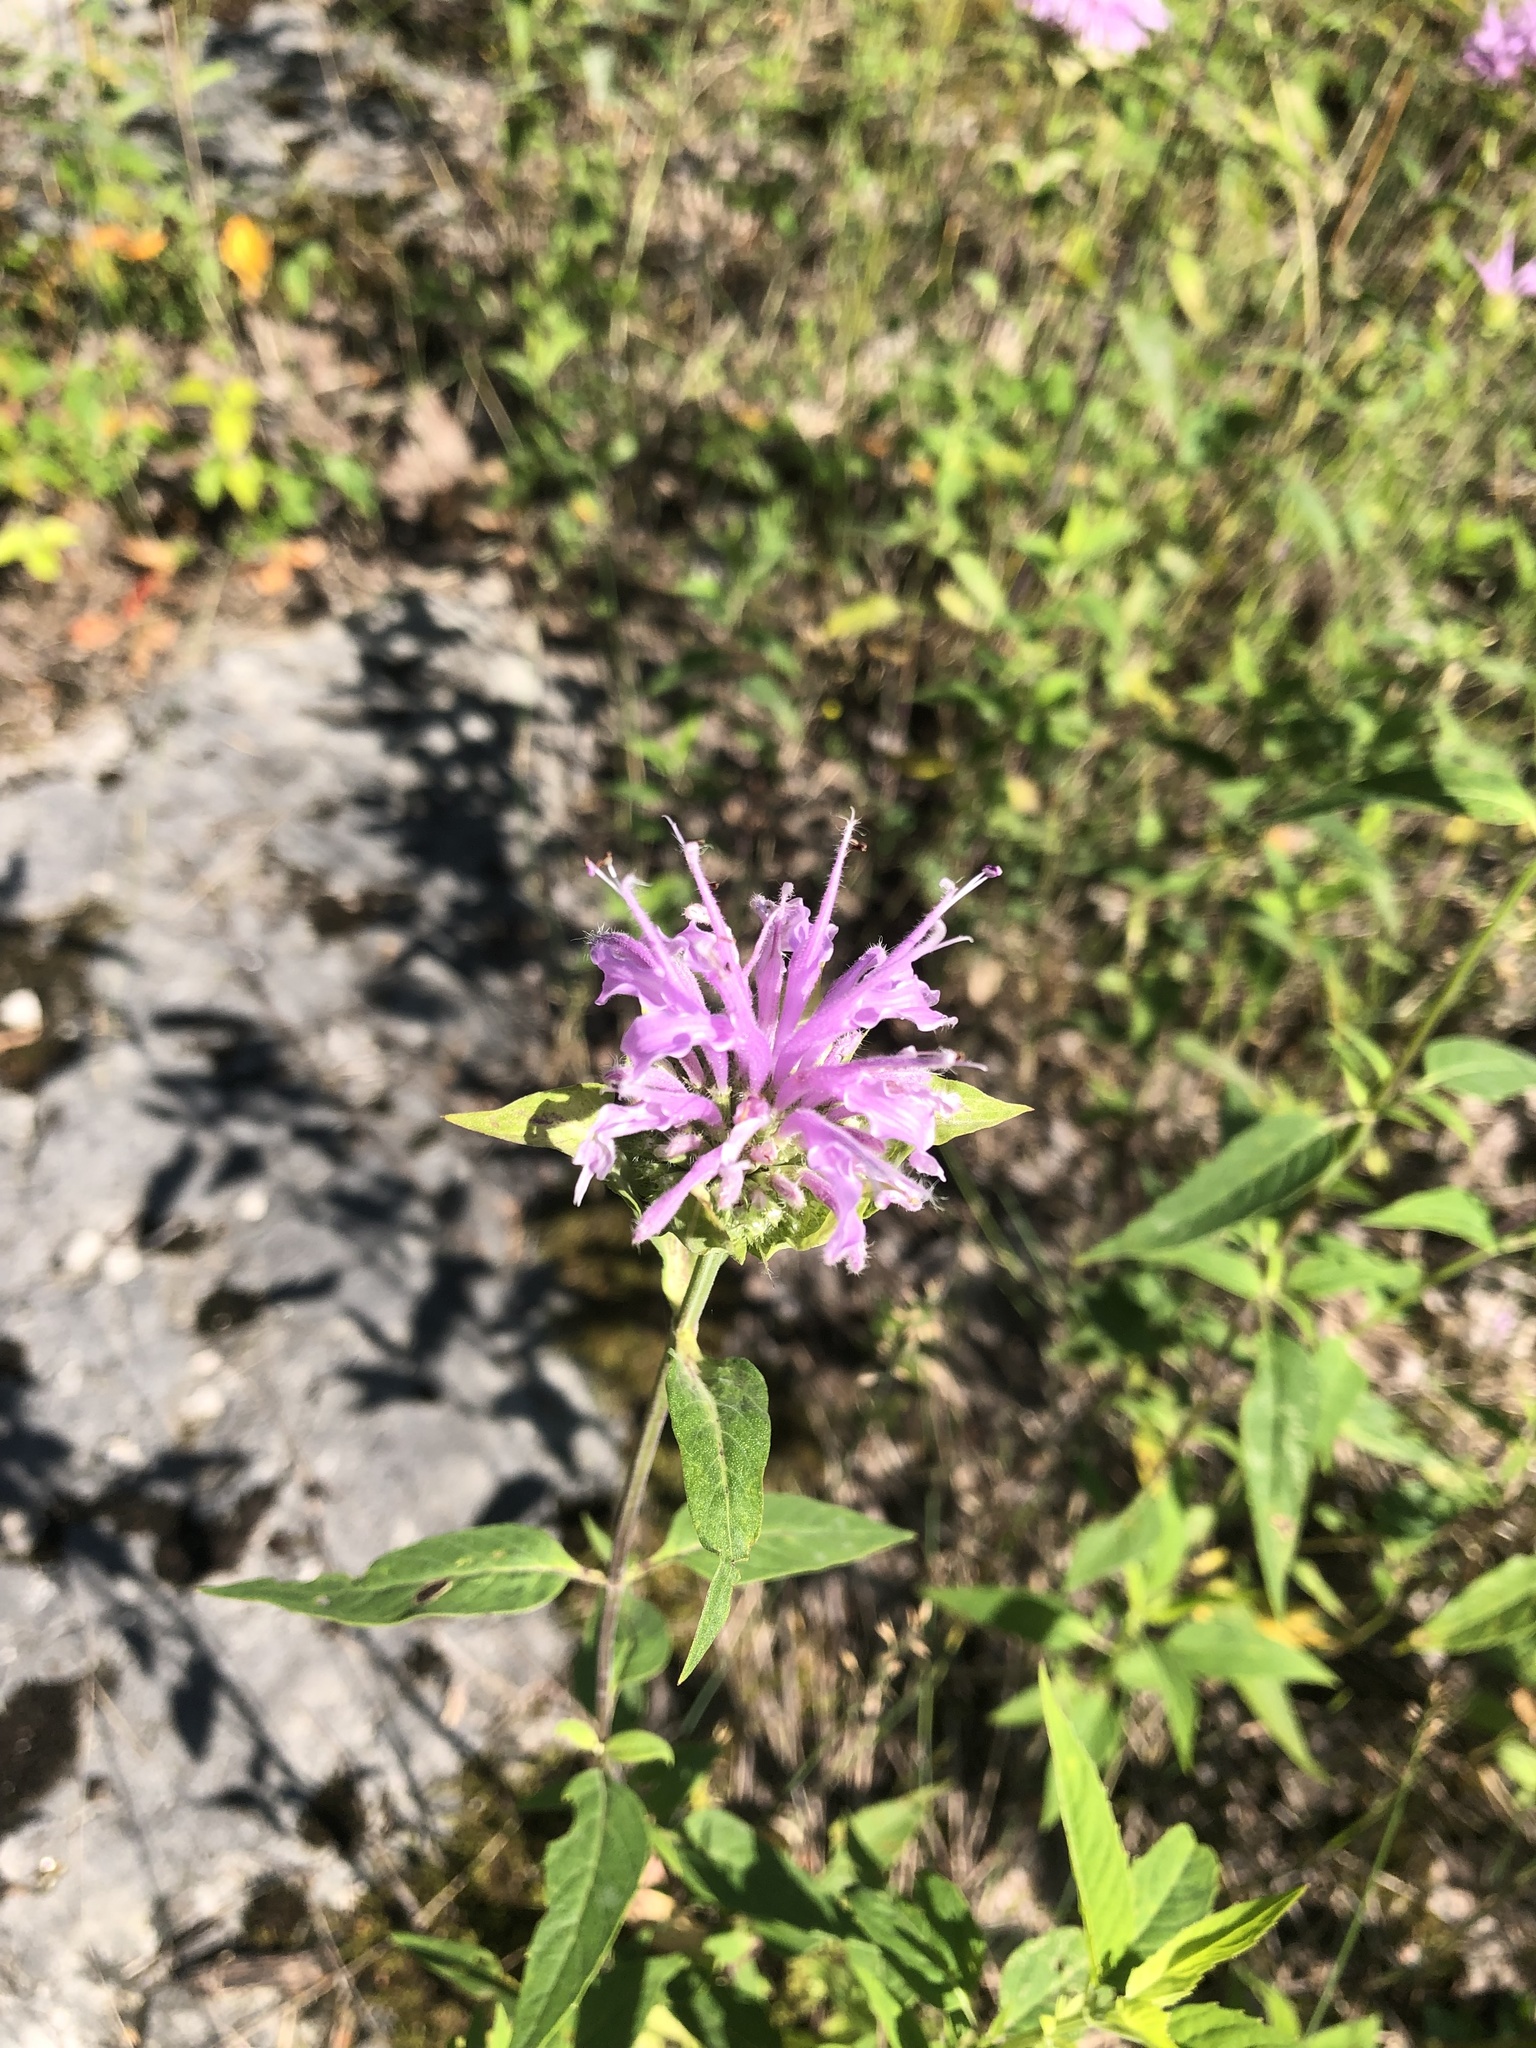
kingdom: Plantae
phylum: Tracheophyta
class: Magnoliopsida
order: Lamiales
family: Lamiaceae
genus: Monarda
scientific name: Monarda fistulosa
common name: Purple beebalm
